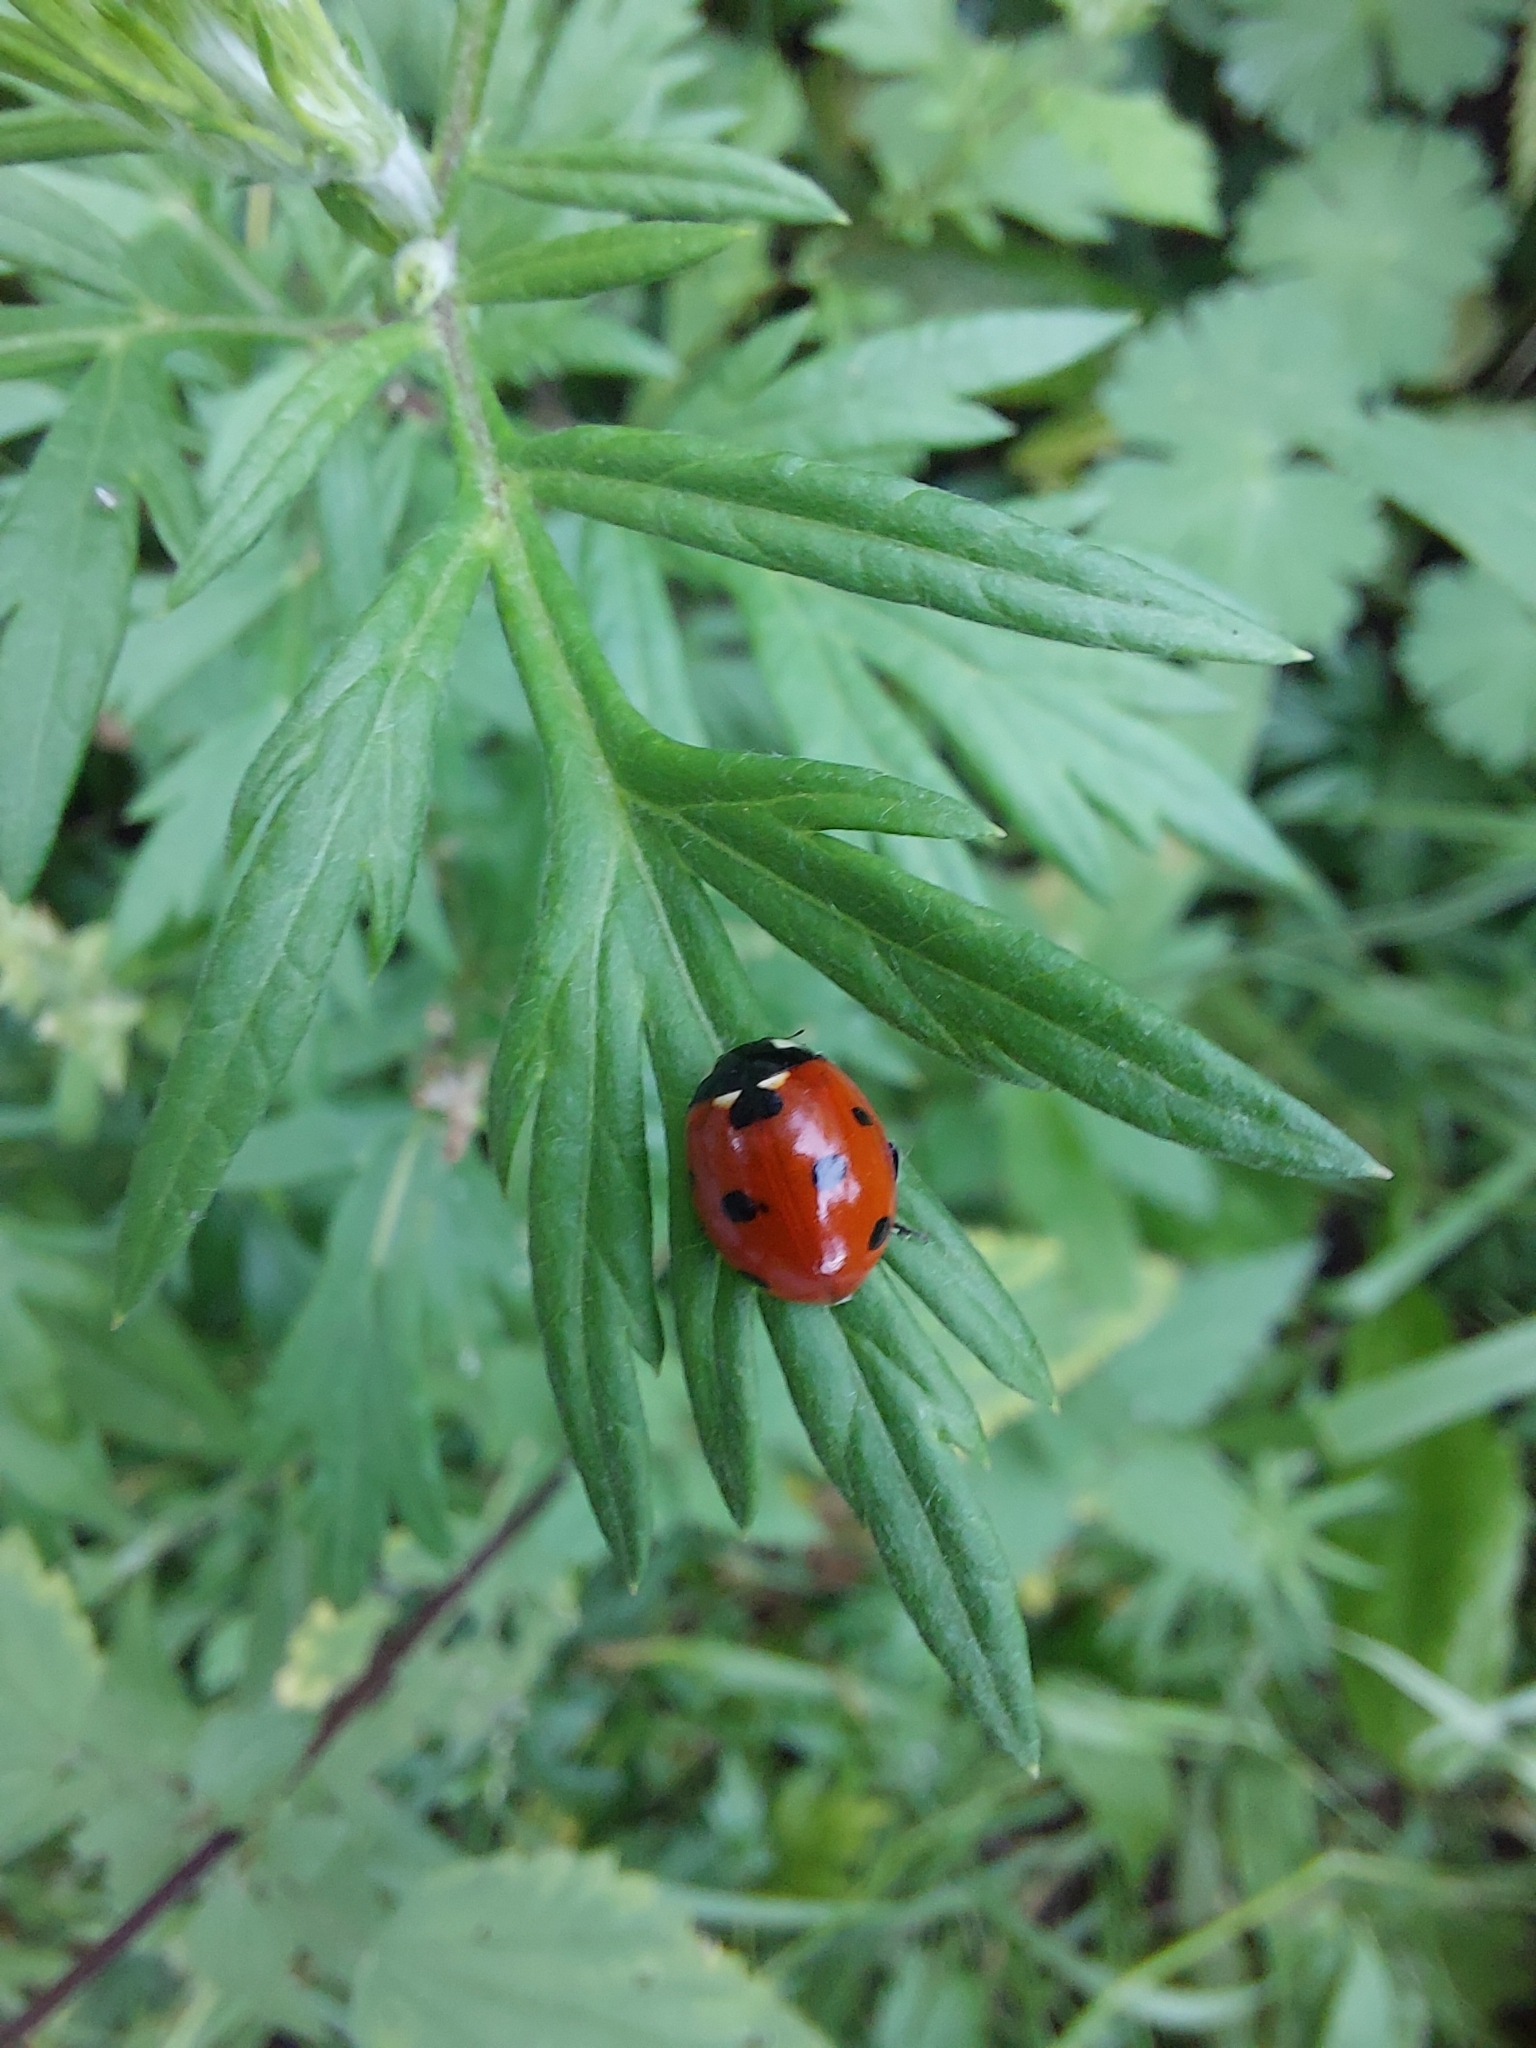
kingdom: Animalia
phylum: Arthropoda
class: Insecta
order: Coleoptera
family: Coccinellidae
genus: Coccinella
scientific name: Coccinella septempunctata
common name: Sevenspotted lady beetle
